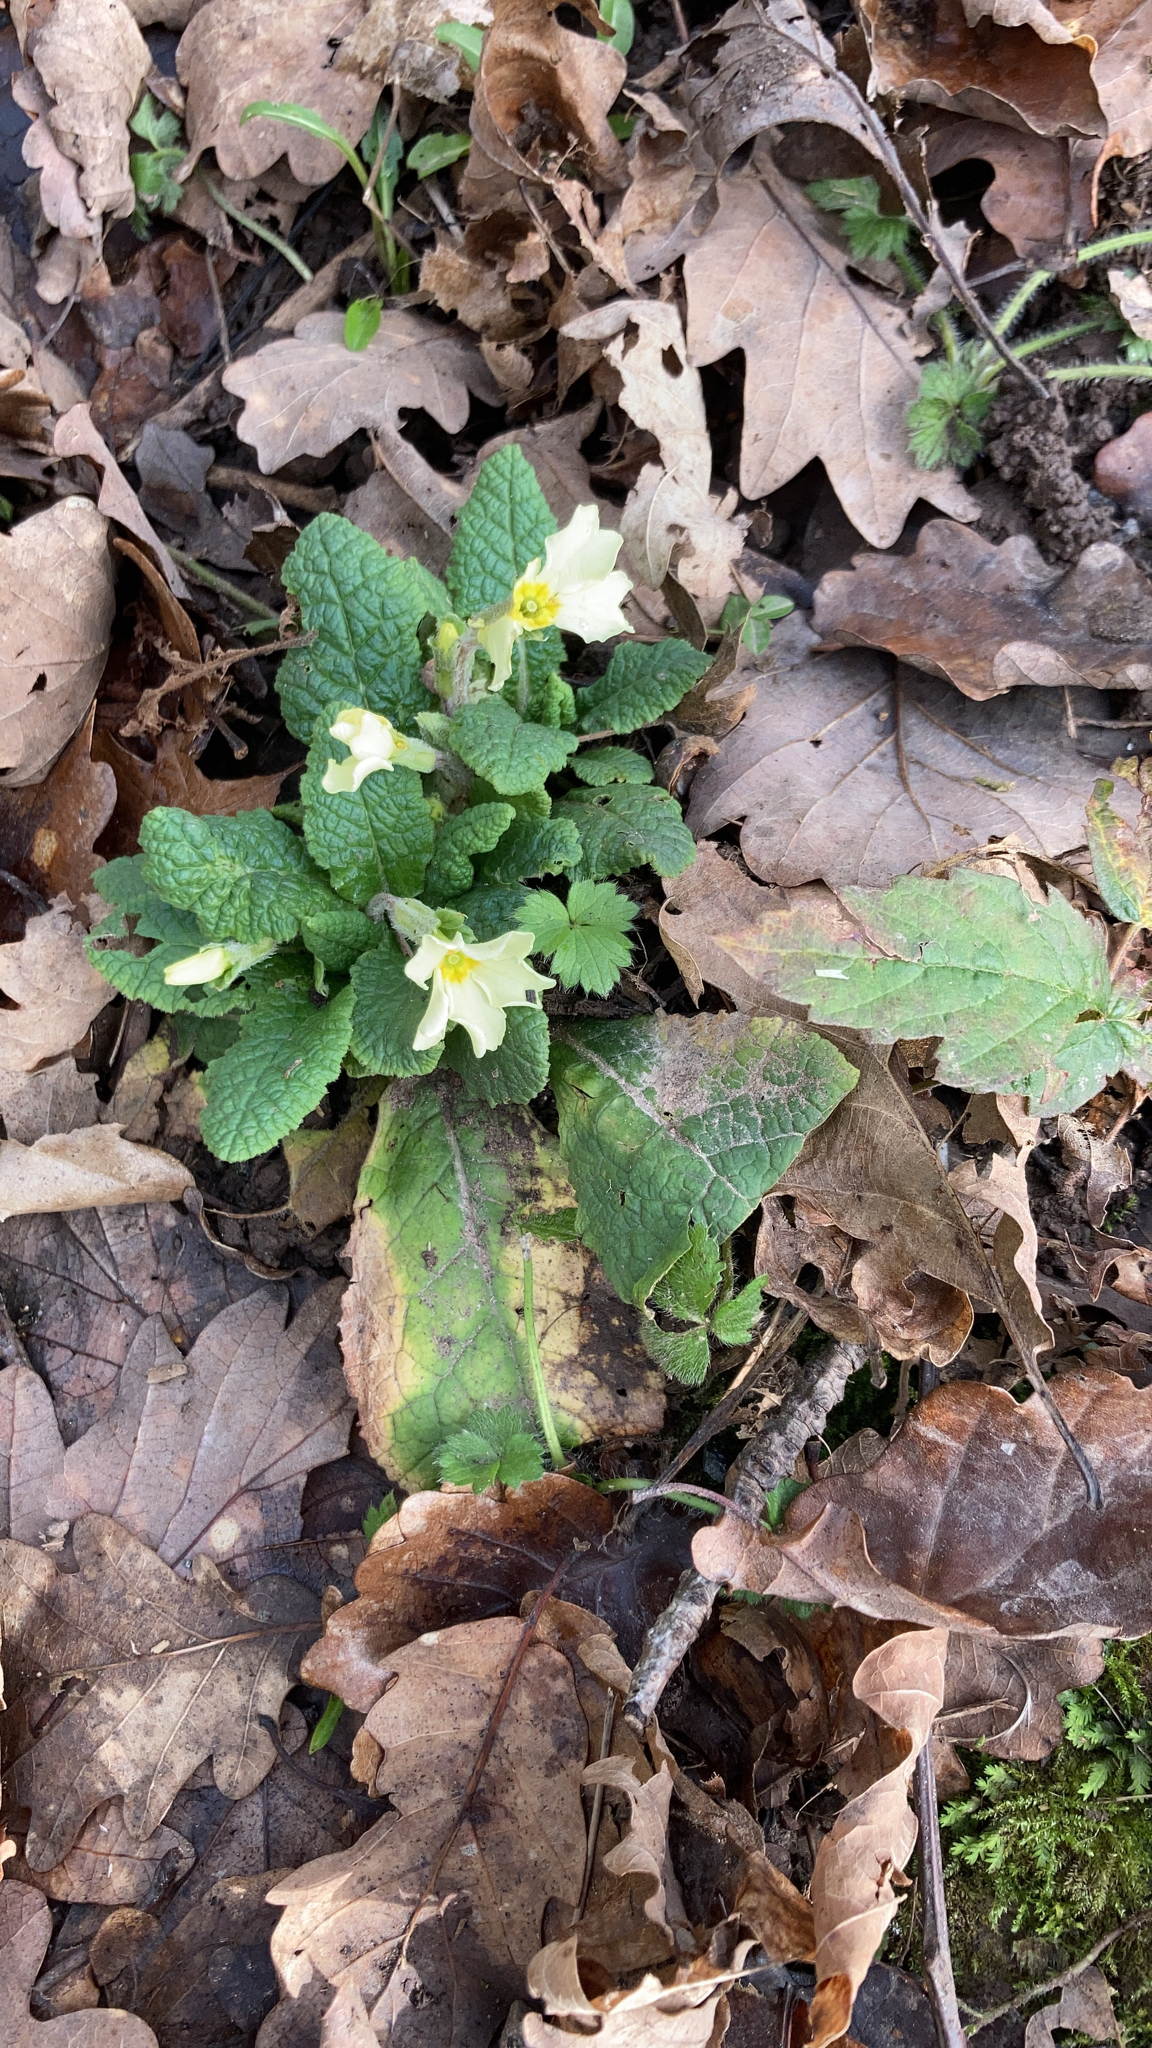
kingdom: Plantae
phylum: Tracheophyta
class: Magnoliopsida
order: Ericales
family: Primulaceae
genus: Primula
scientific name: Primula vulgaris
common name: Primrose
